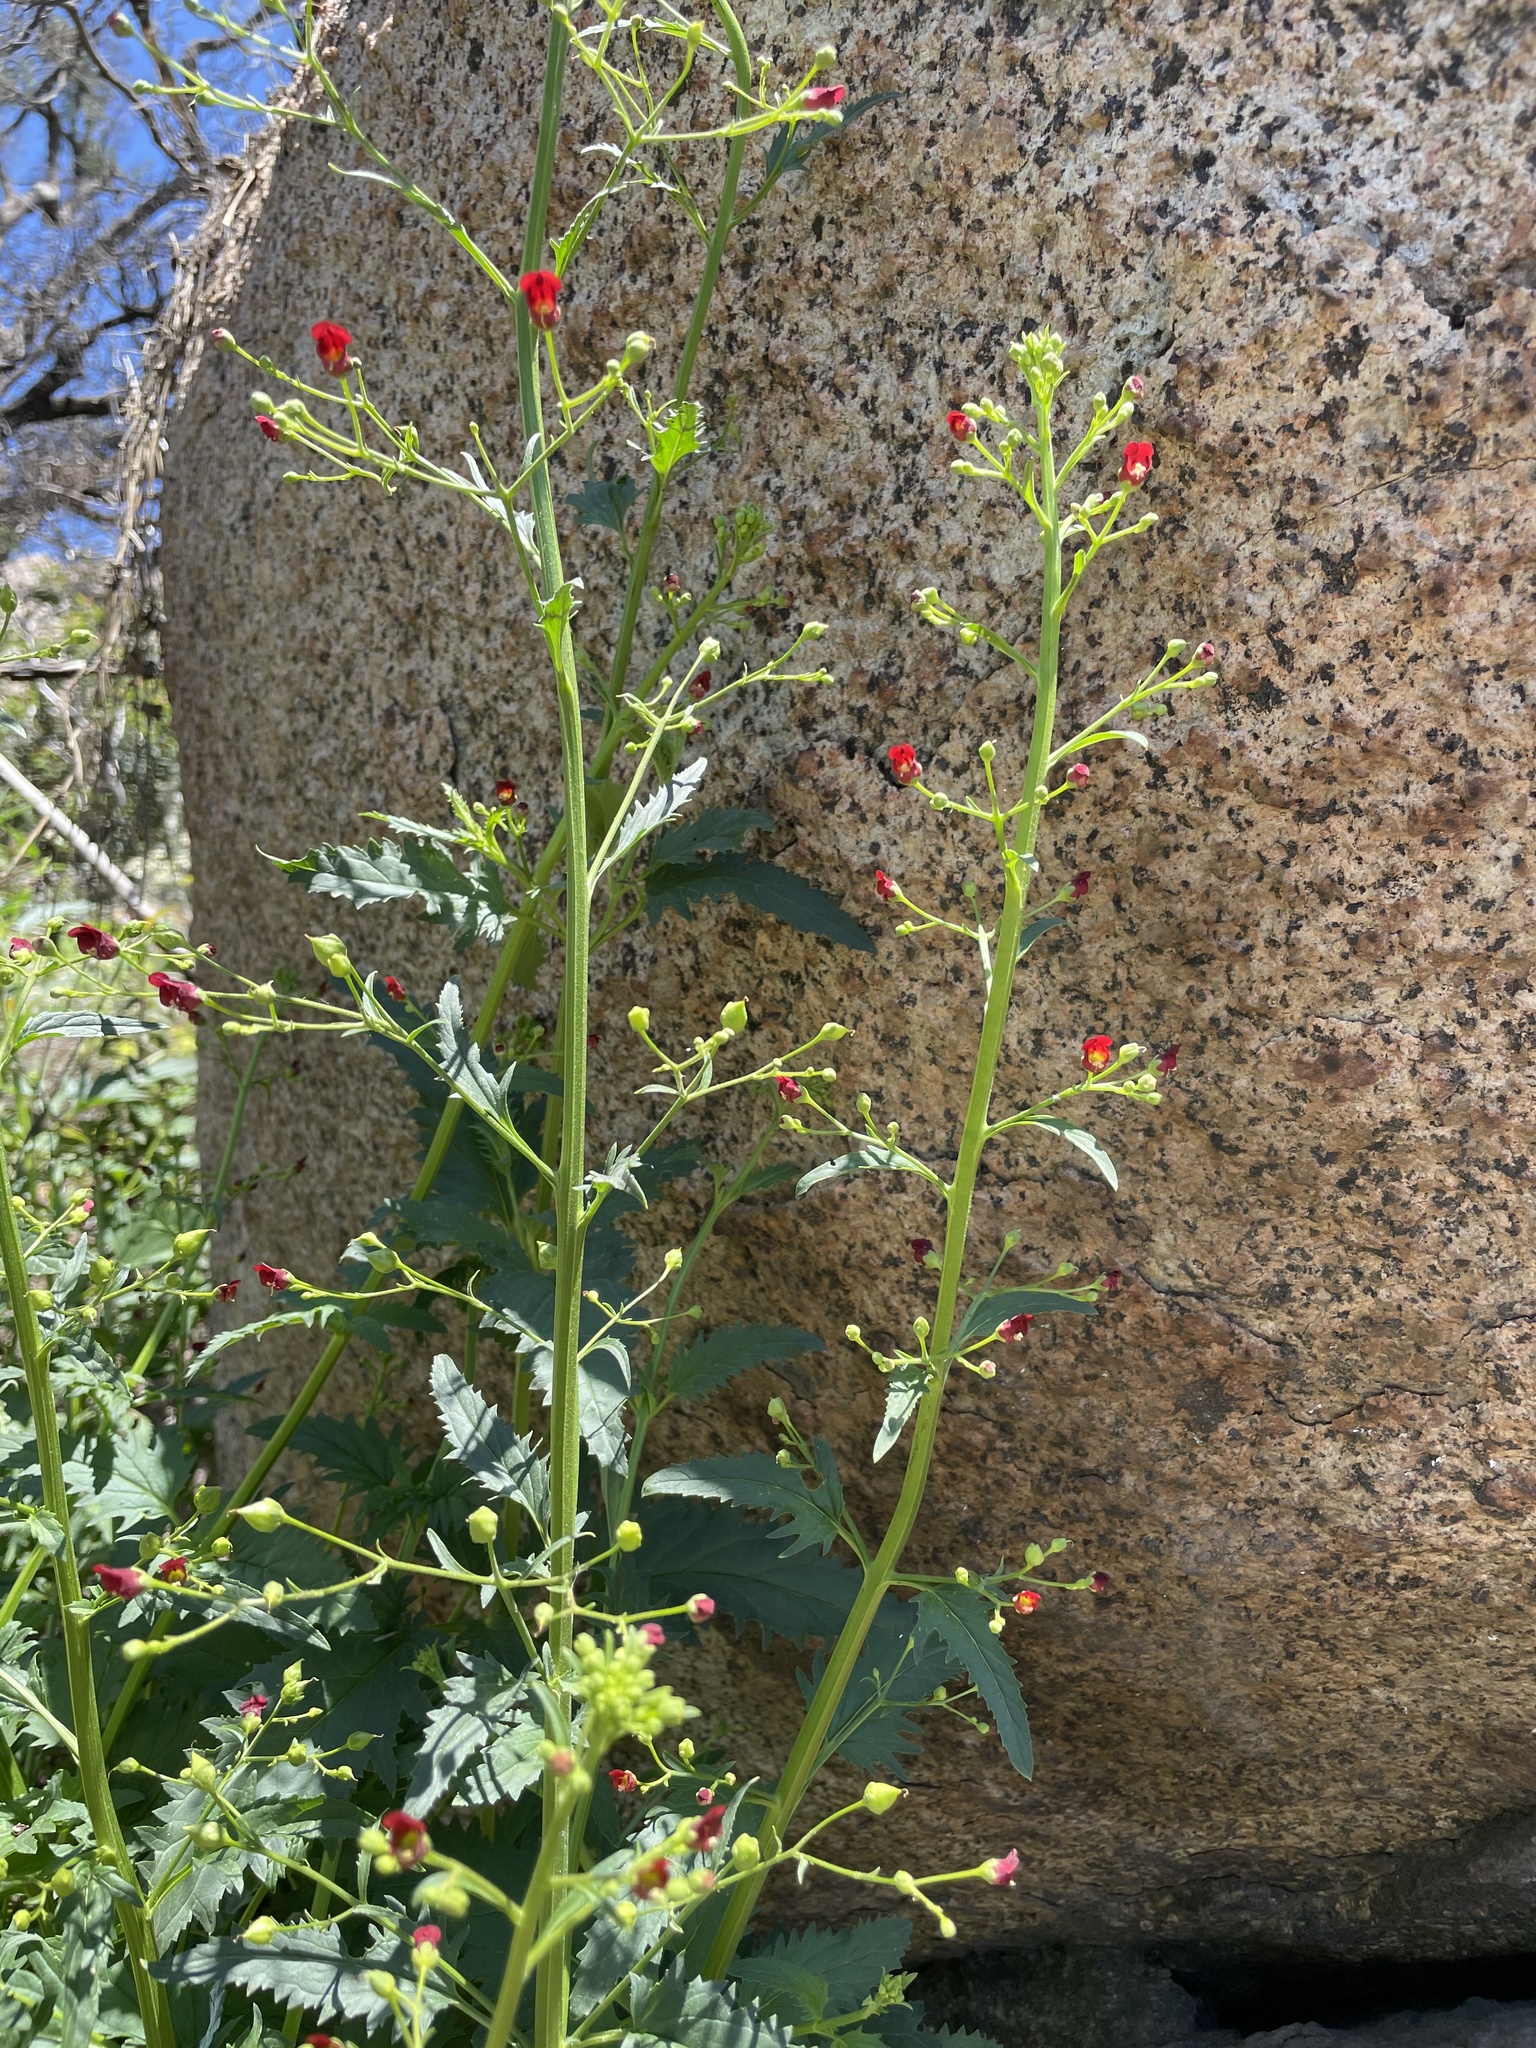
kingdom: Plantae
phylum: Tracheophyta
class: Magnoliopsida
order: Lamiales
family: Scrophulariaceae
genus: Scrophularia
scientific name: Scrophularia californica
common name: California figwort
